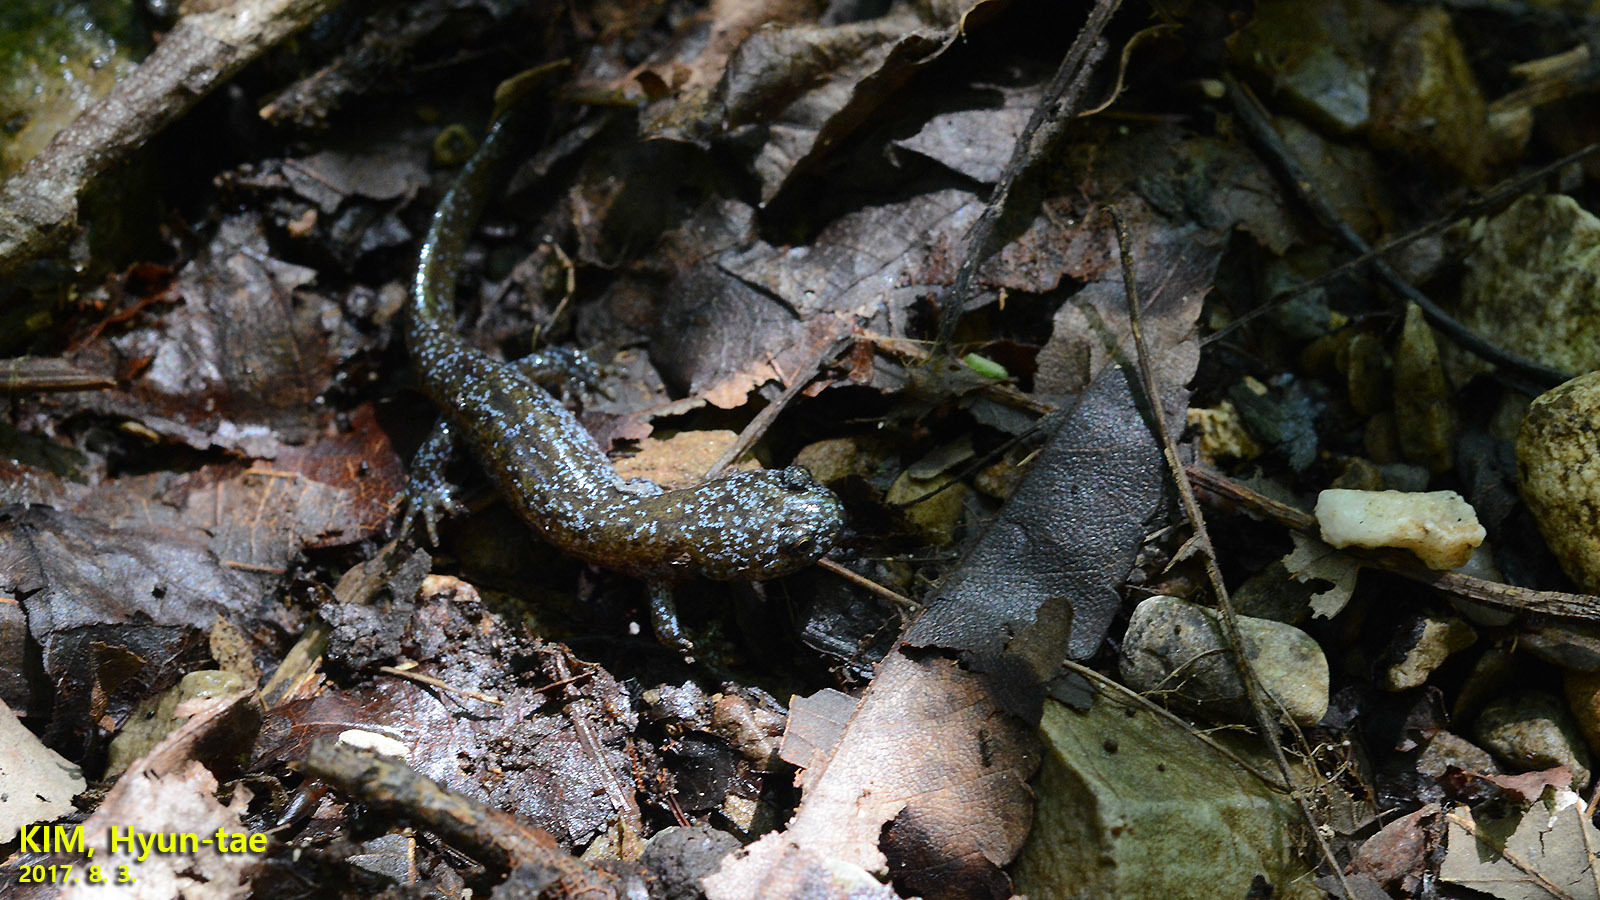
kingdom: Animalia
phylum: Chordata
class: Amphibia
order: Caudata
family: Hynobiidae
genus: Hynobius
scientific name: Hynobius leechii
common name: Gensan salamander
